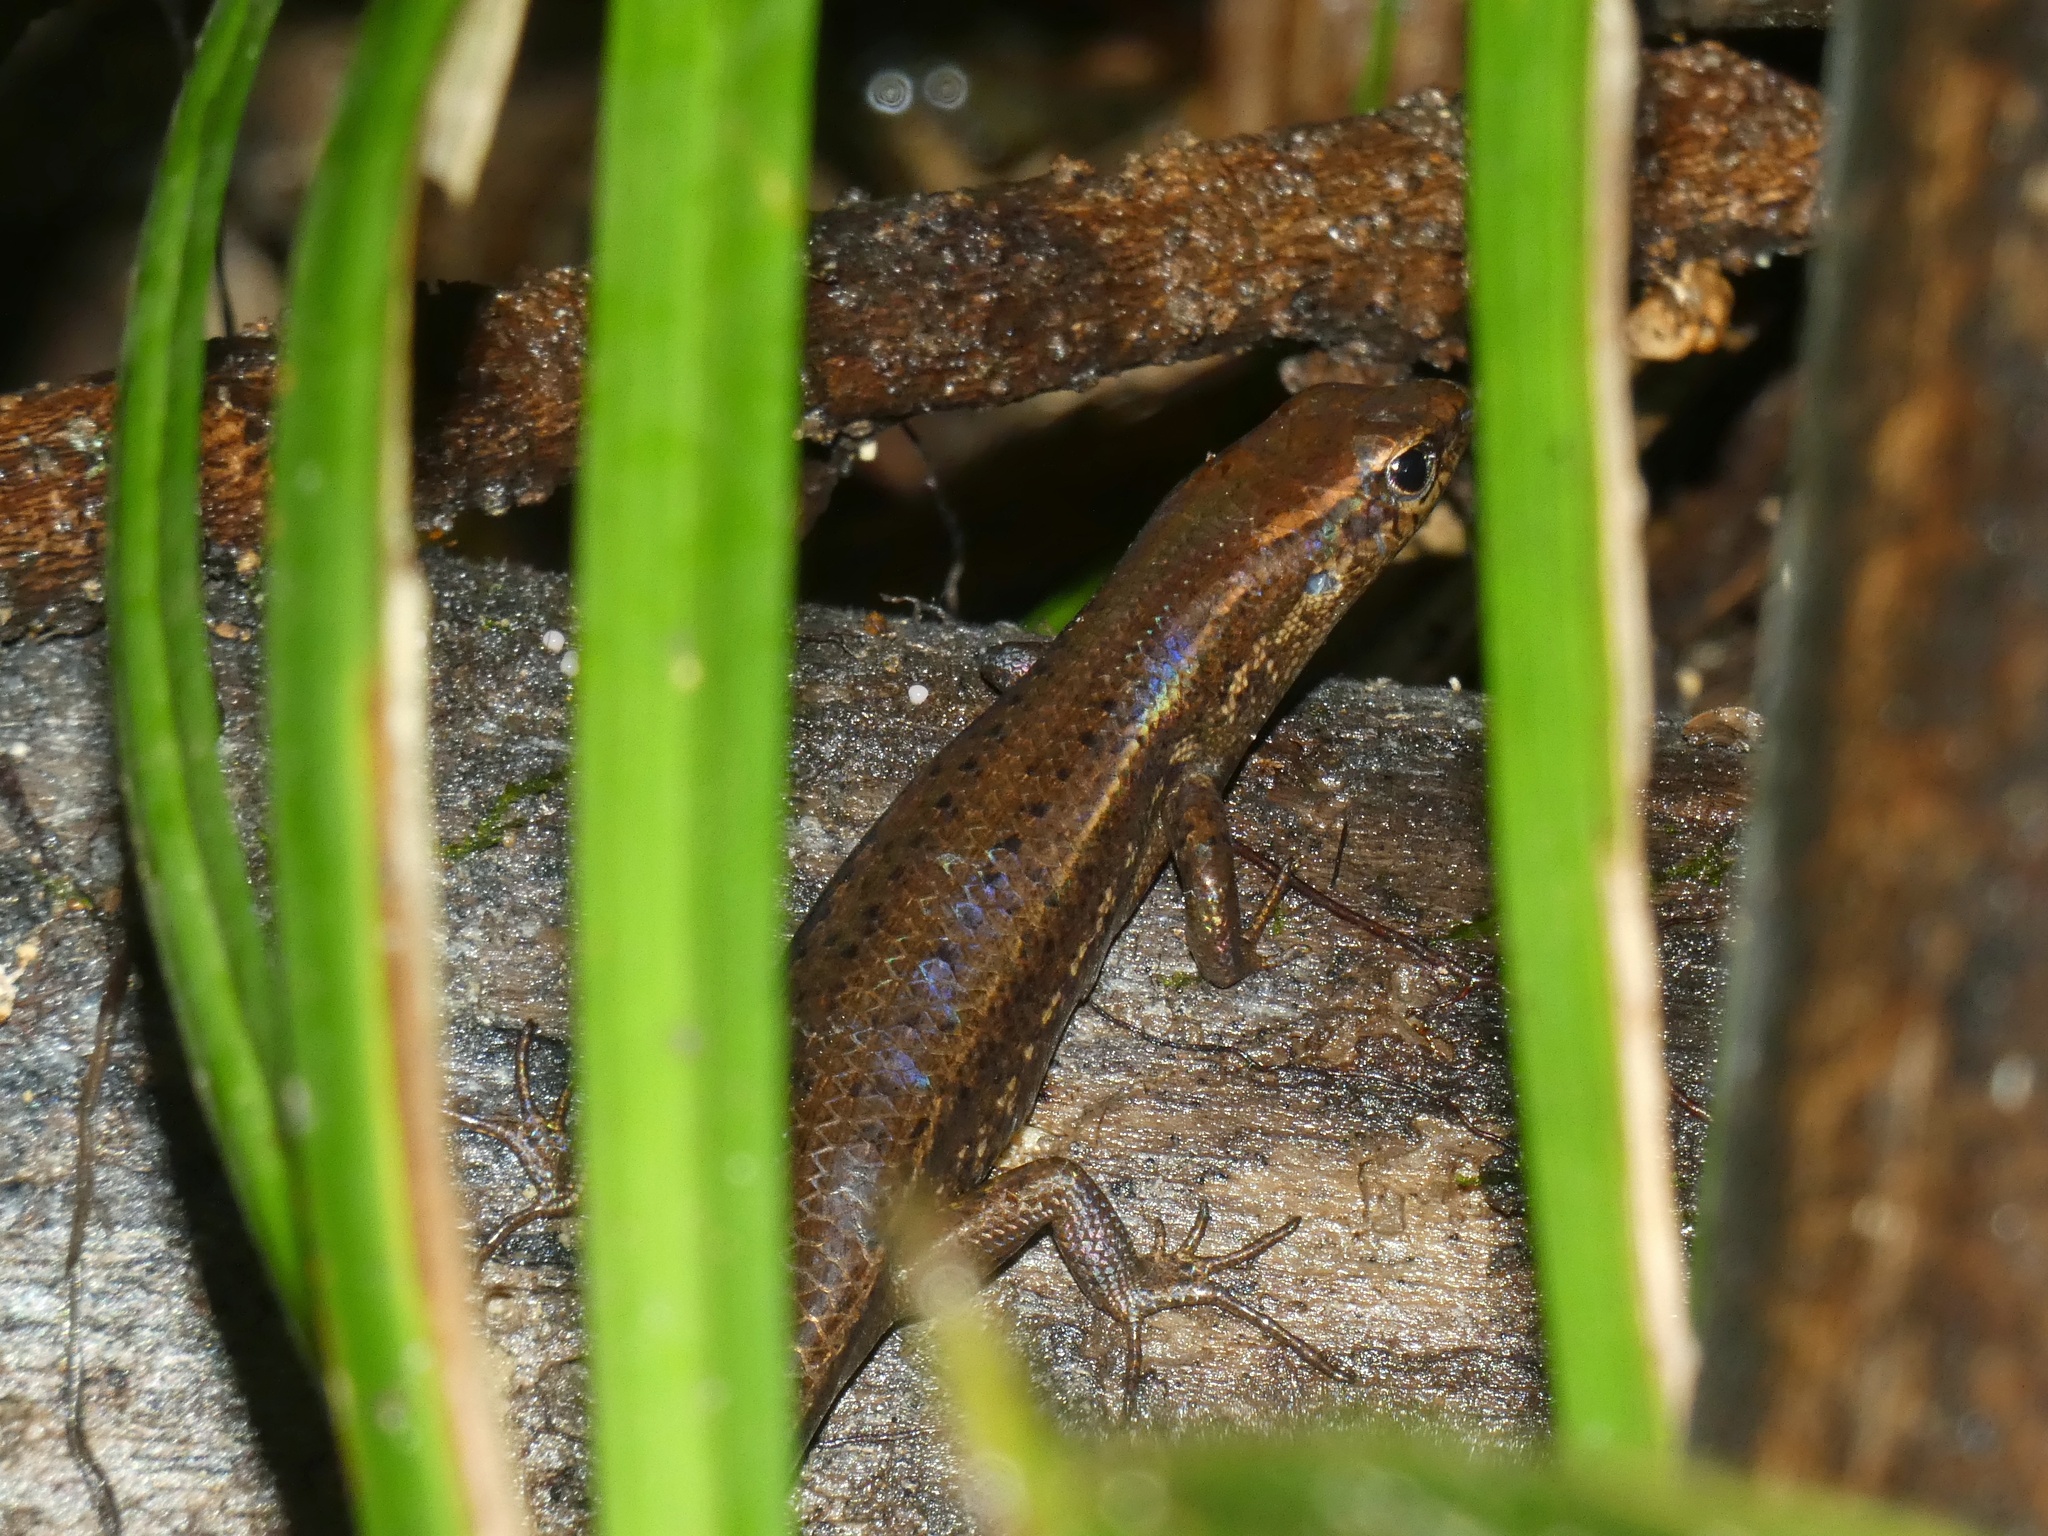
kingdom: Animalia
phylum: Chordata
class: Squamata
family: Scincidae
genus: Carlia
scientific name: Carlia crypta
